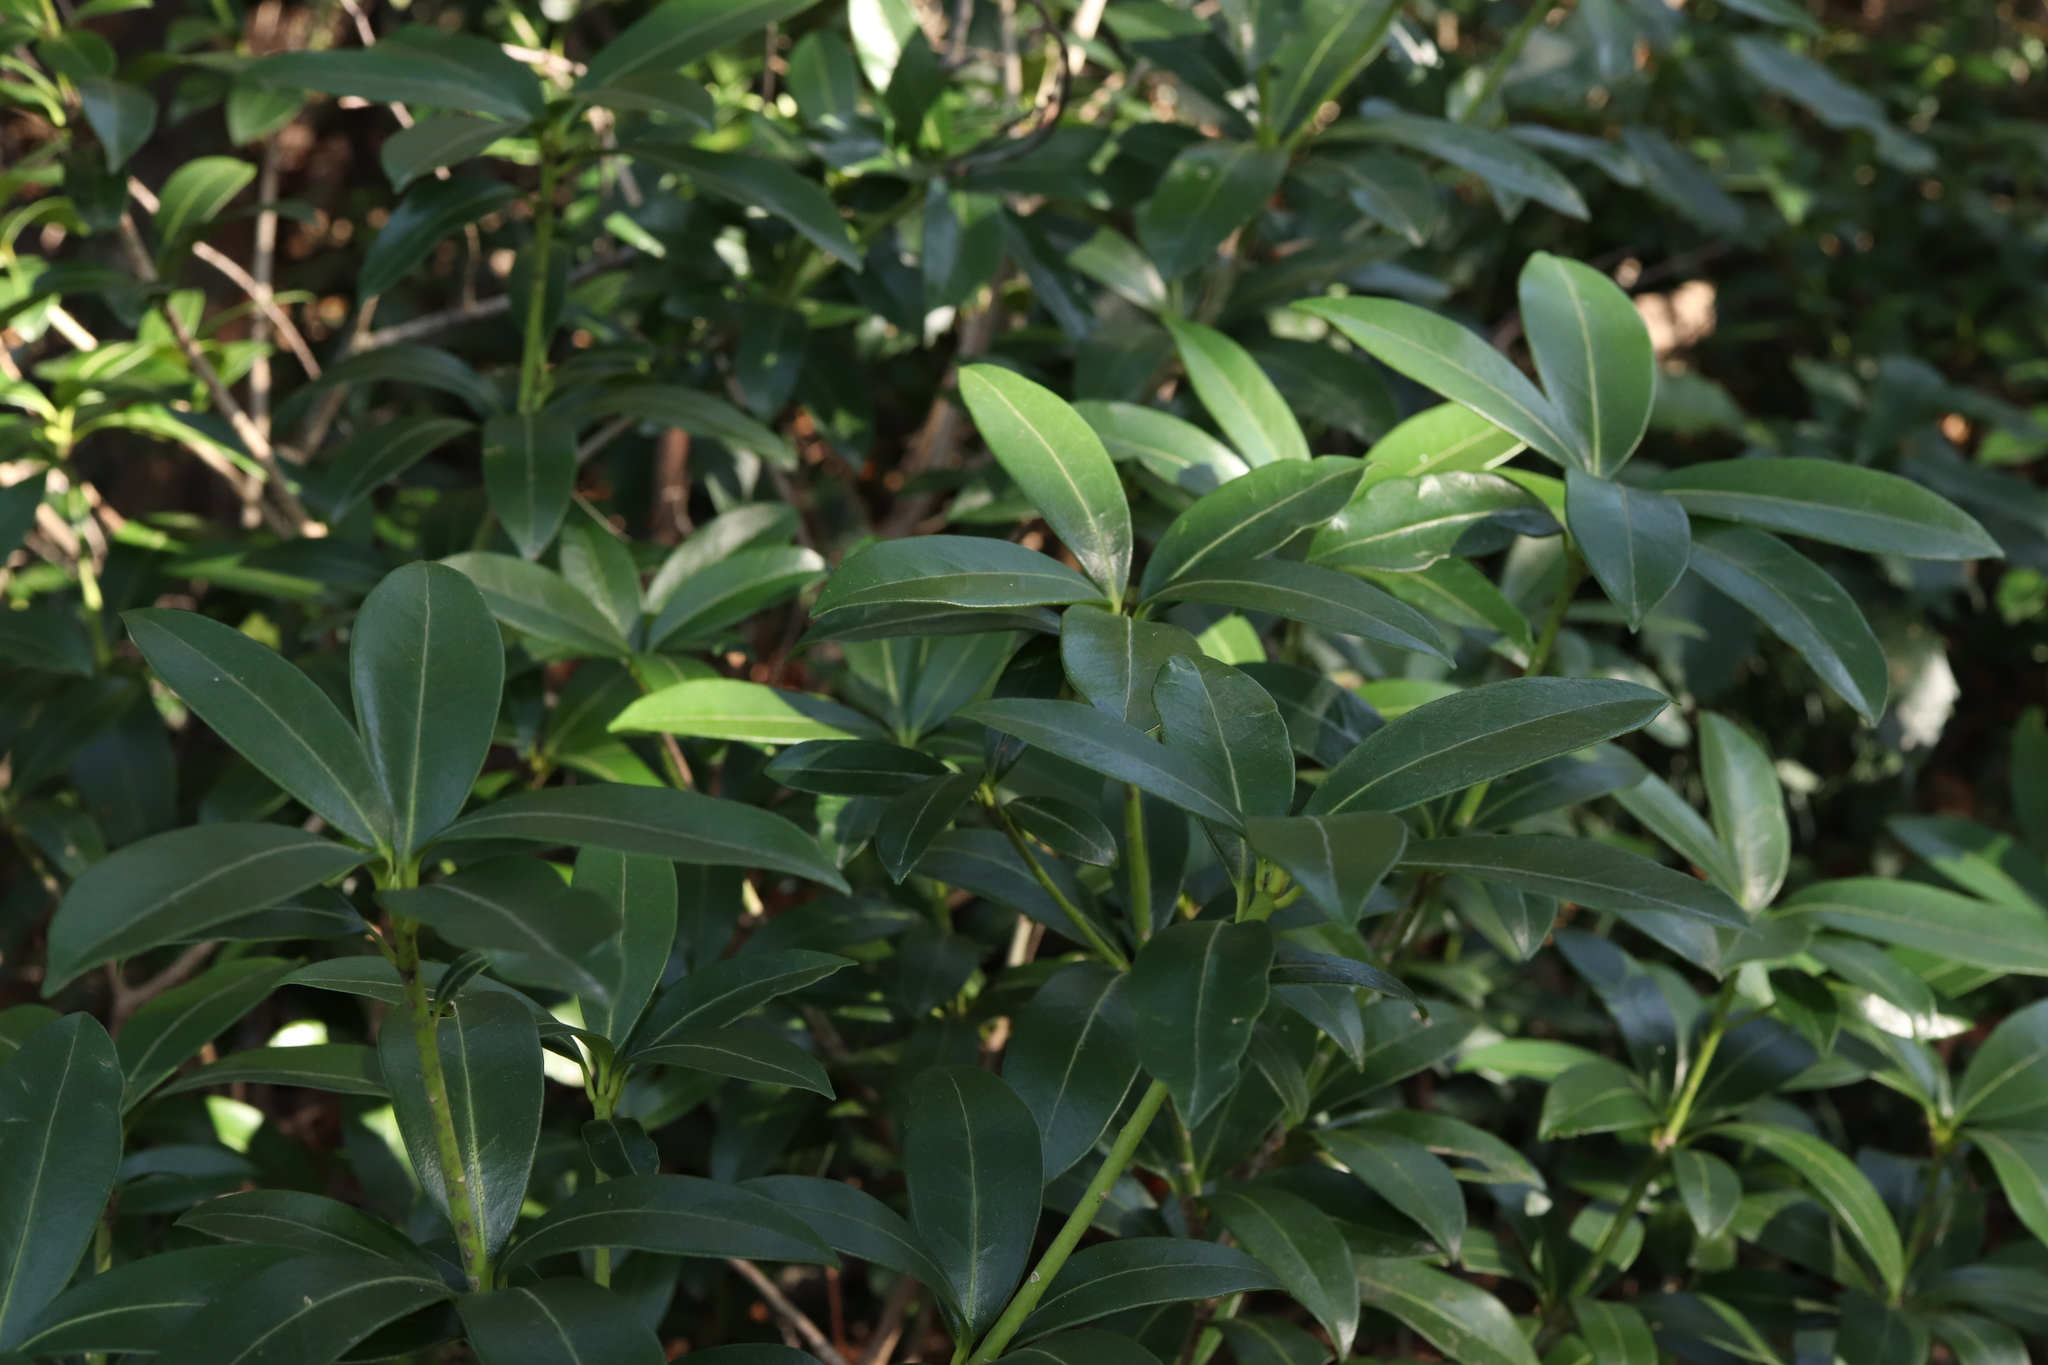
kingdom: Plantae
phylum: Tracheophyta
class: Magnoliopsida
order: Sapindales
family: Rutaceae
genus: Skimmia
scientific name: Skimmia japonica
